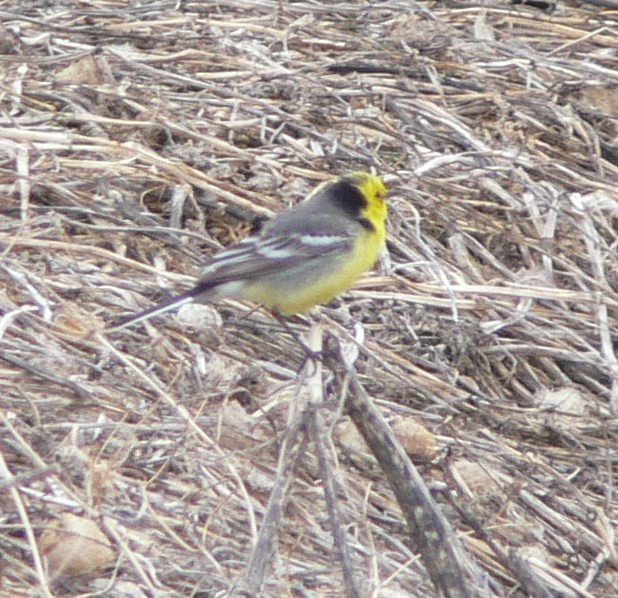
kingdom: Animalia
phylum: Chordata
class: Aves
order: Passeriformes
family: Motacillidae
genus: Motacilla
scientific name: Motacilla citreola
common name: Citrine wagtail
